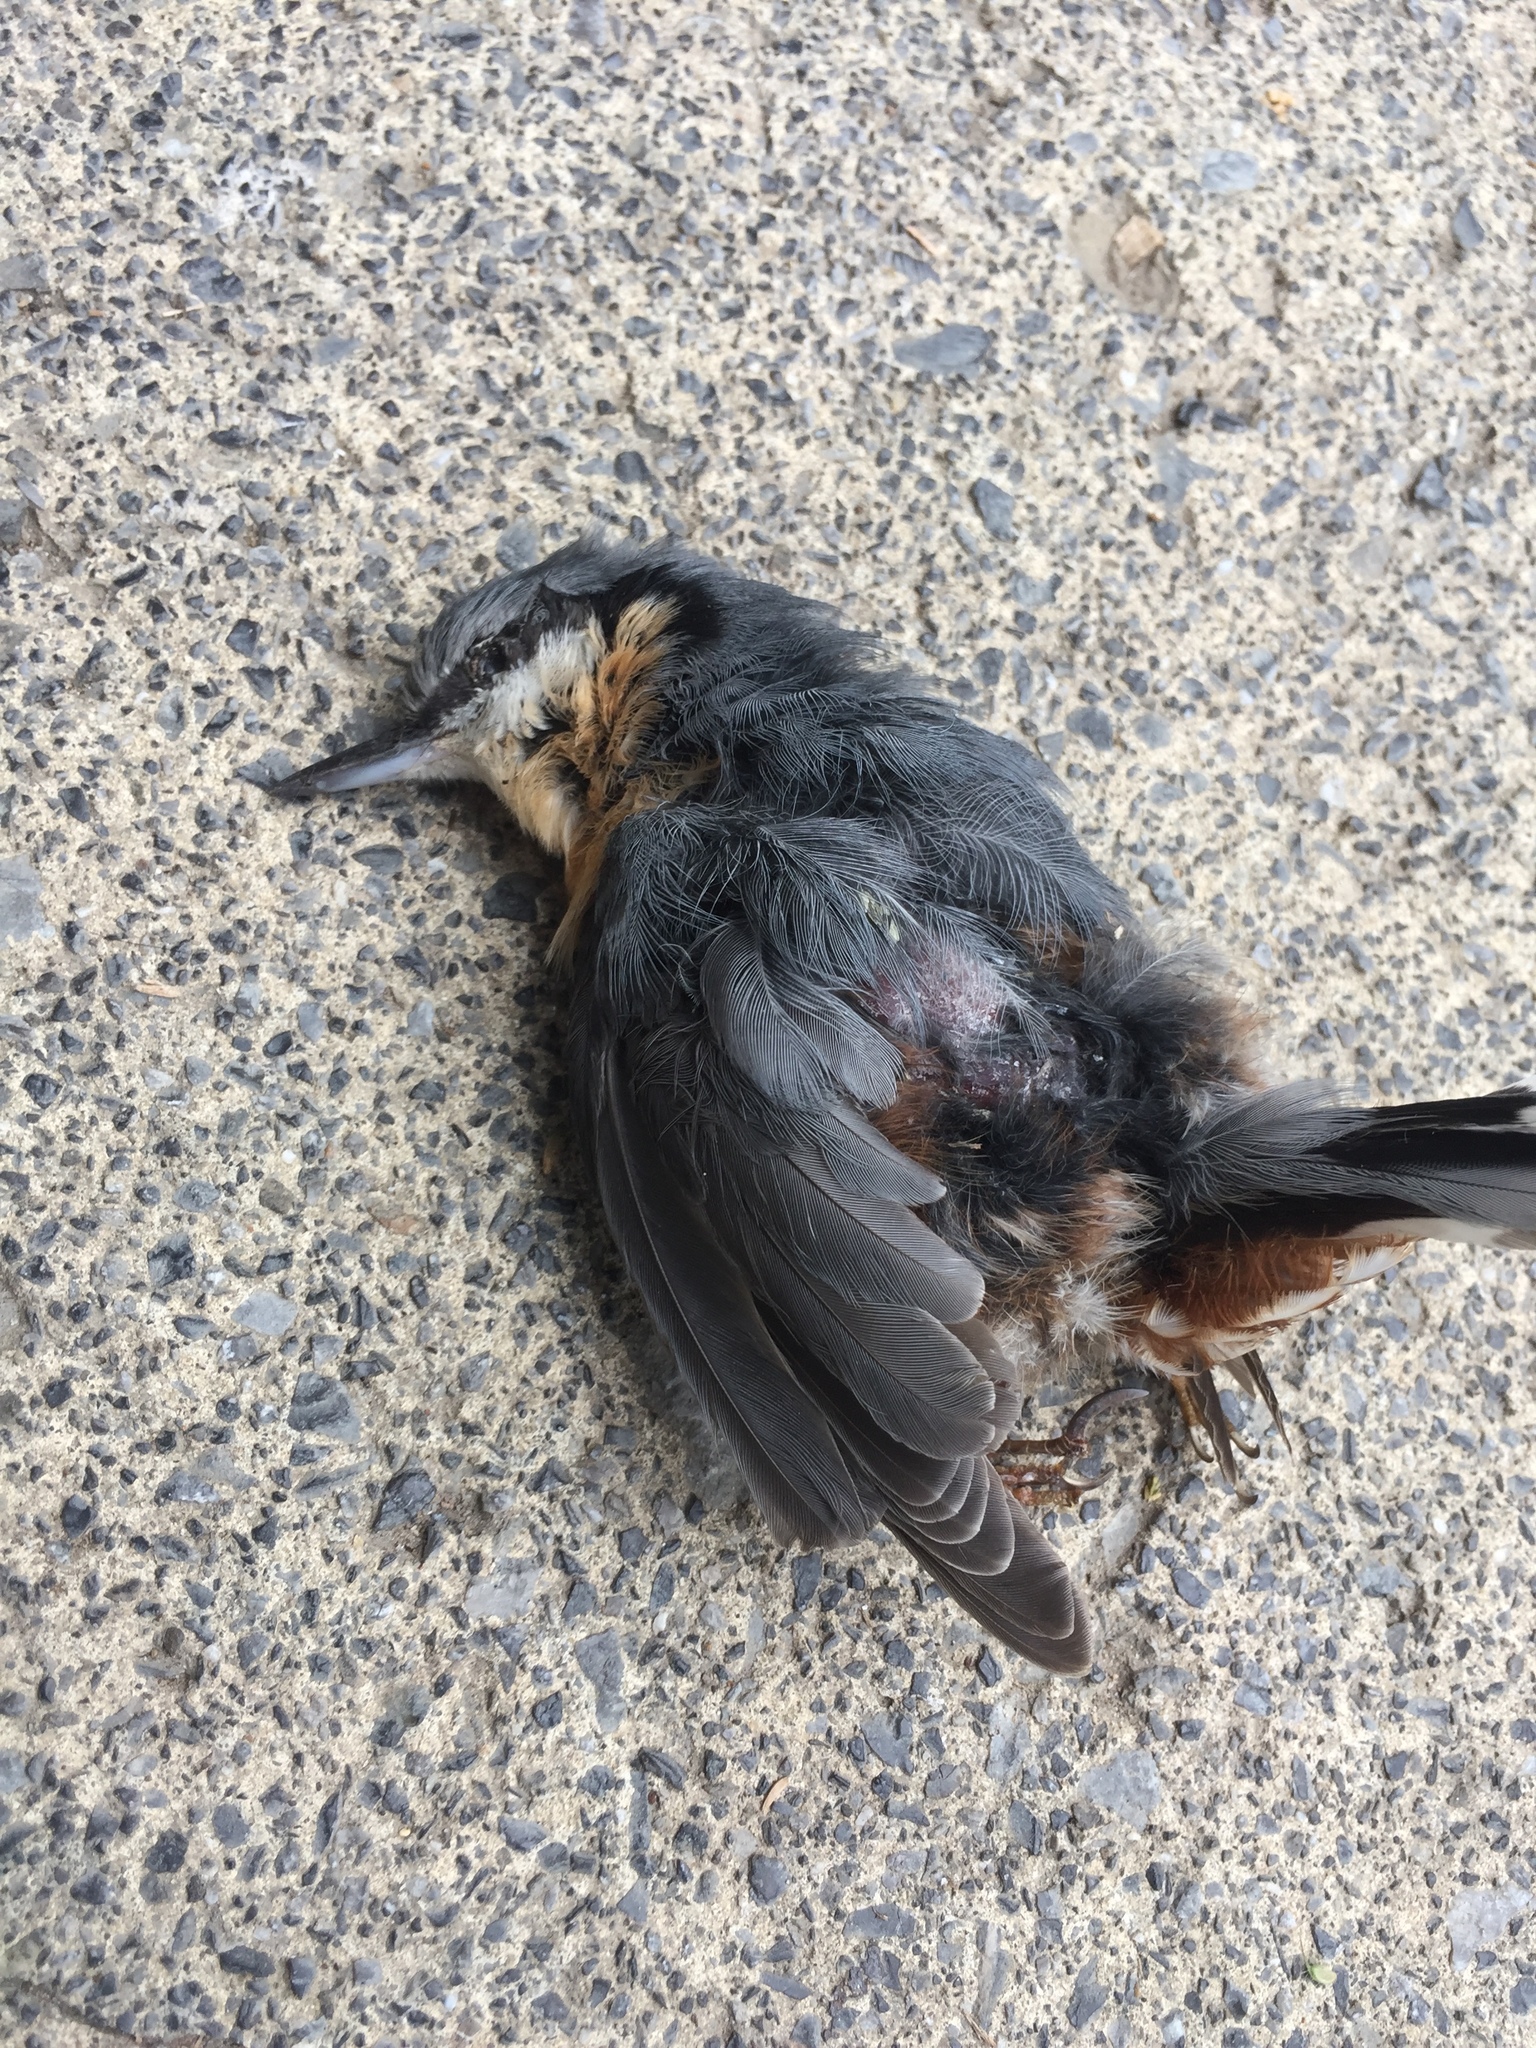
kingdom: Animalia
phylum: Chordata
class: Aves
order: Passeriformes
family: Sittidae
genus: Sitta
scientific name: Sitta europaea
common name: Eurasian nuthatch
